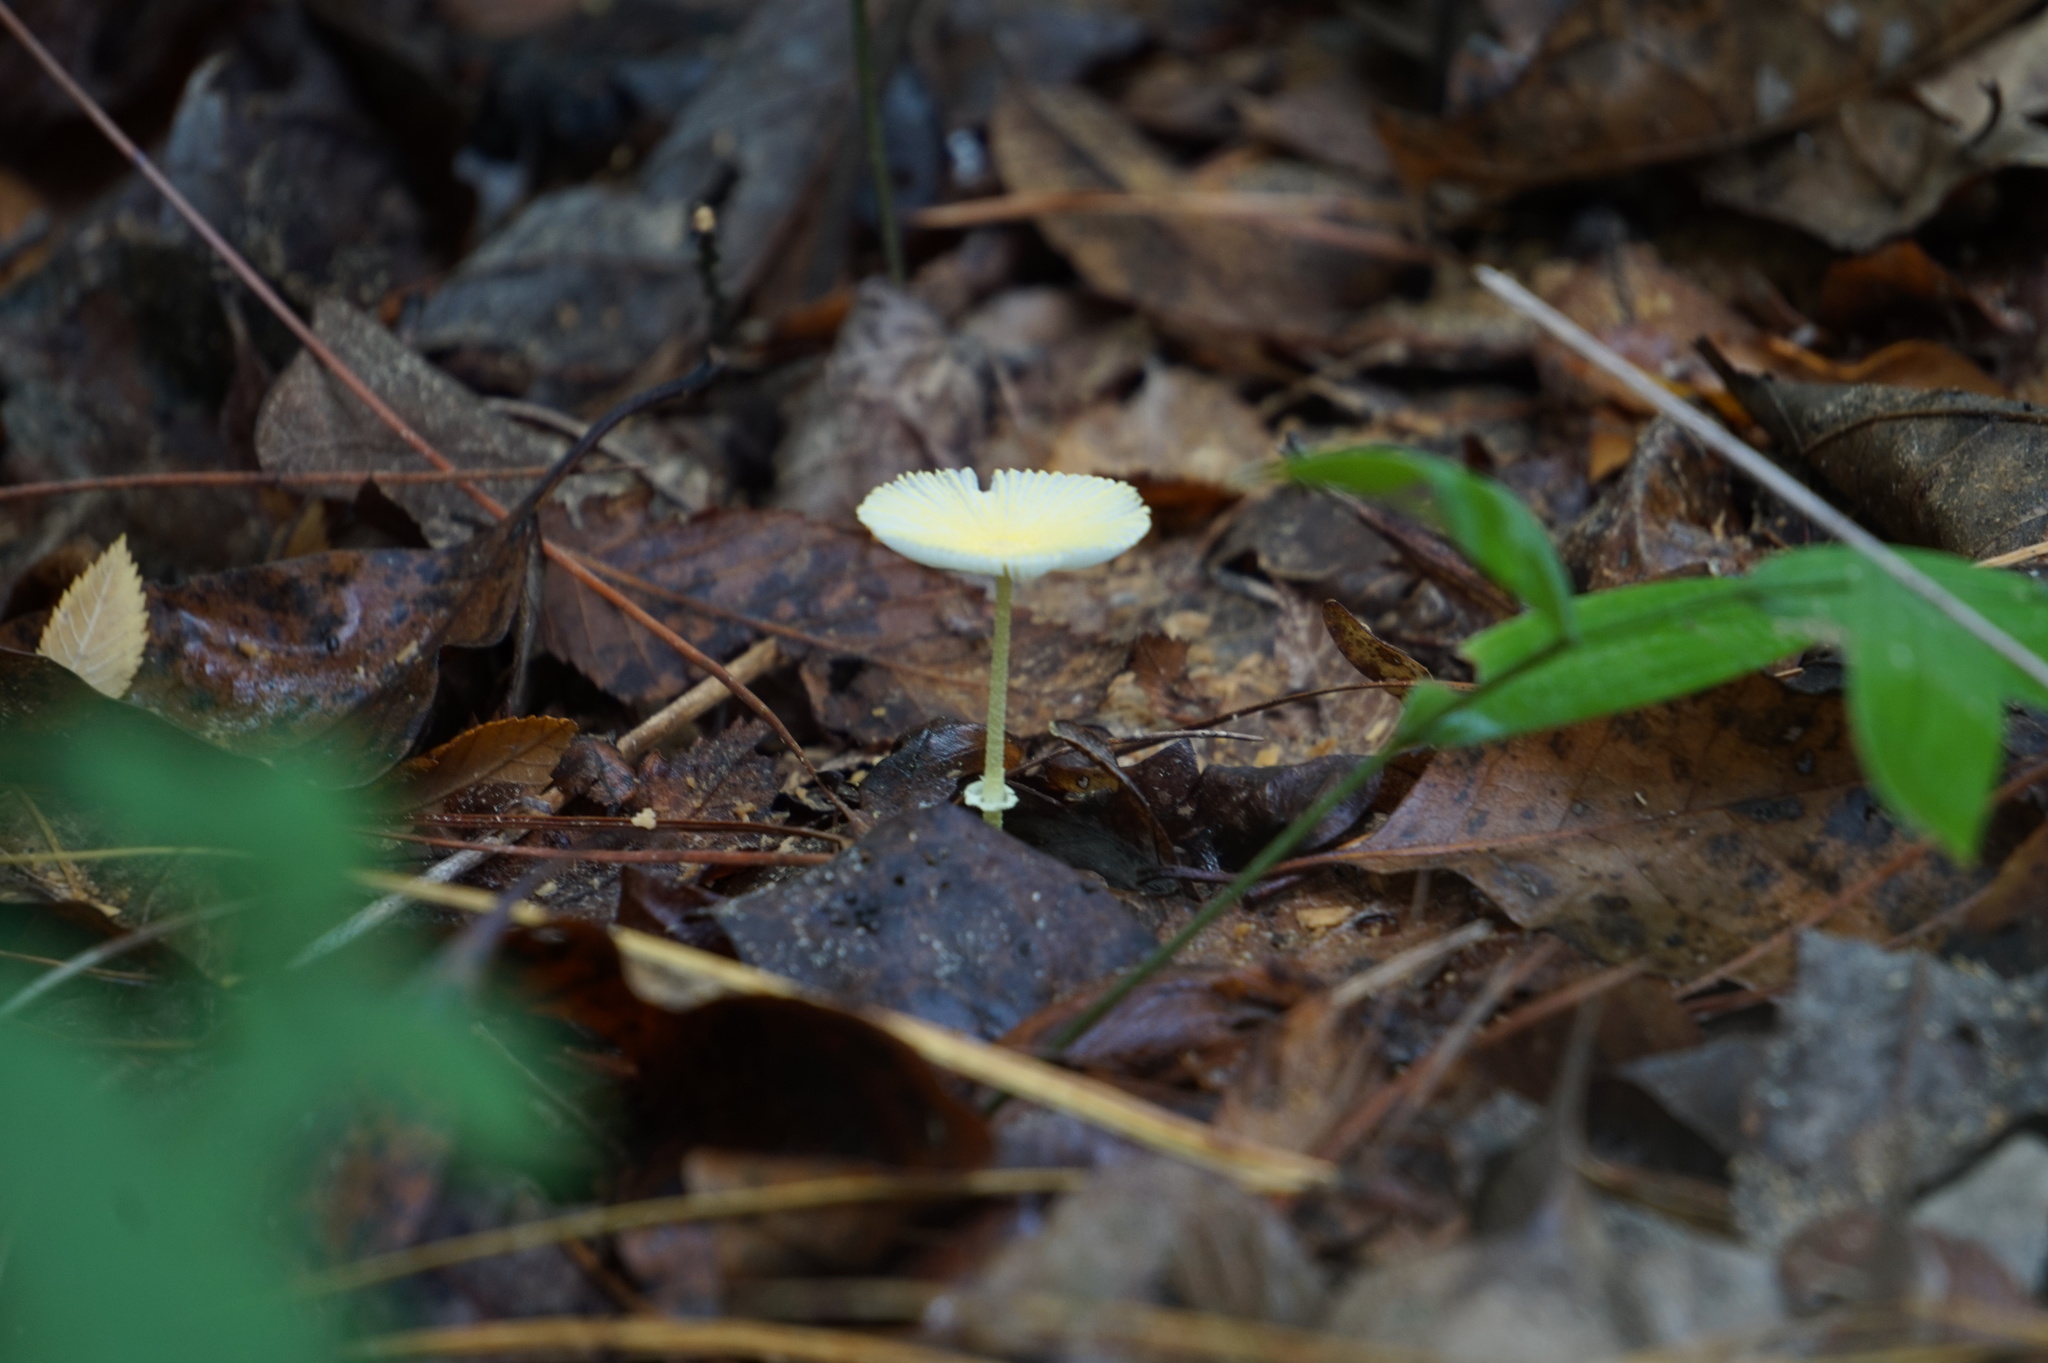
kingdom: Fungi
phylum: Basidiomycota
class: Agaricomycetes
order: Agaricales
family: Agaricaceae
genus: Leucocoprinus
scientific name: Leucocoprinus fragilissimus
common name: Fragile dapperling
